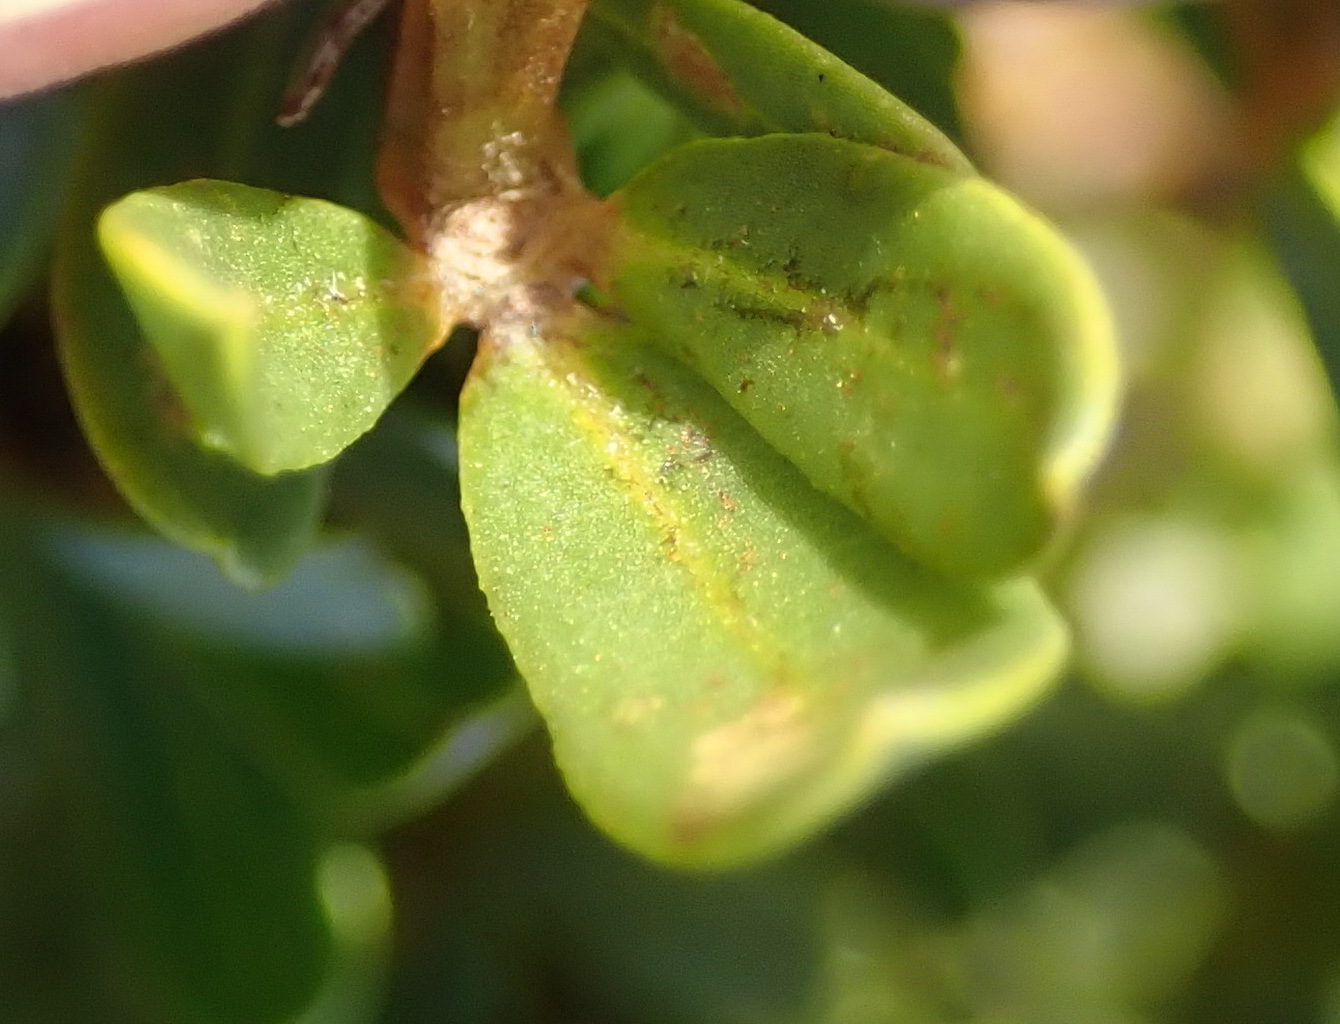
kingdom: Plantae
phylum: Tracheophyta
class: Magnoliopsida
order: Fabales
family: Fabaceae
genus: Cyclopia
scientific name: Cyclopia sessiliflora
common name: Heidelberg tea
